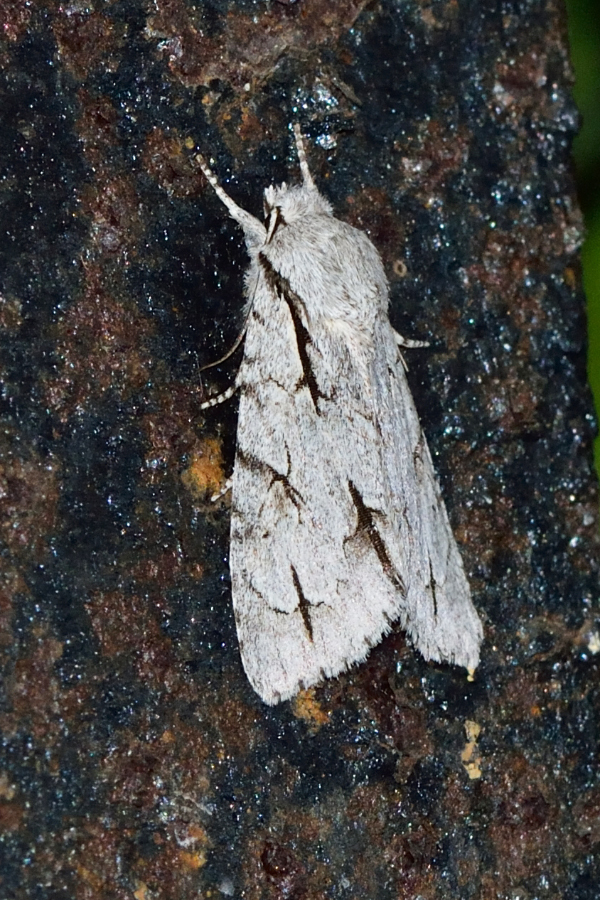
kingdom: Animalia
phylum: Arthropoda
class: Insecta
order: Lepidoptera
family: Noctuidae
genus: Acronicta
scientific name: Acronicta psi
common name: Grey dagger
